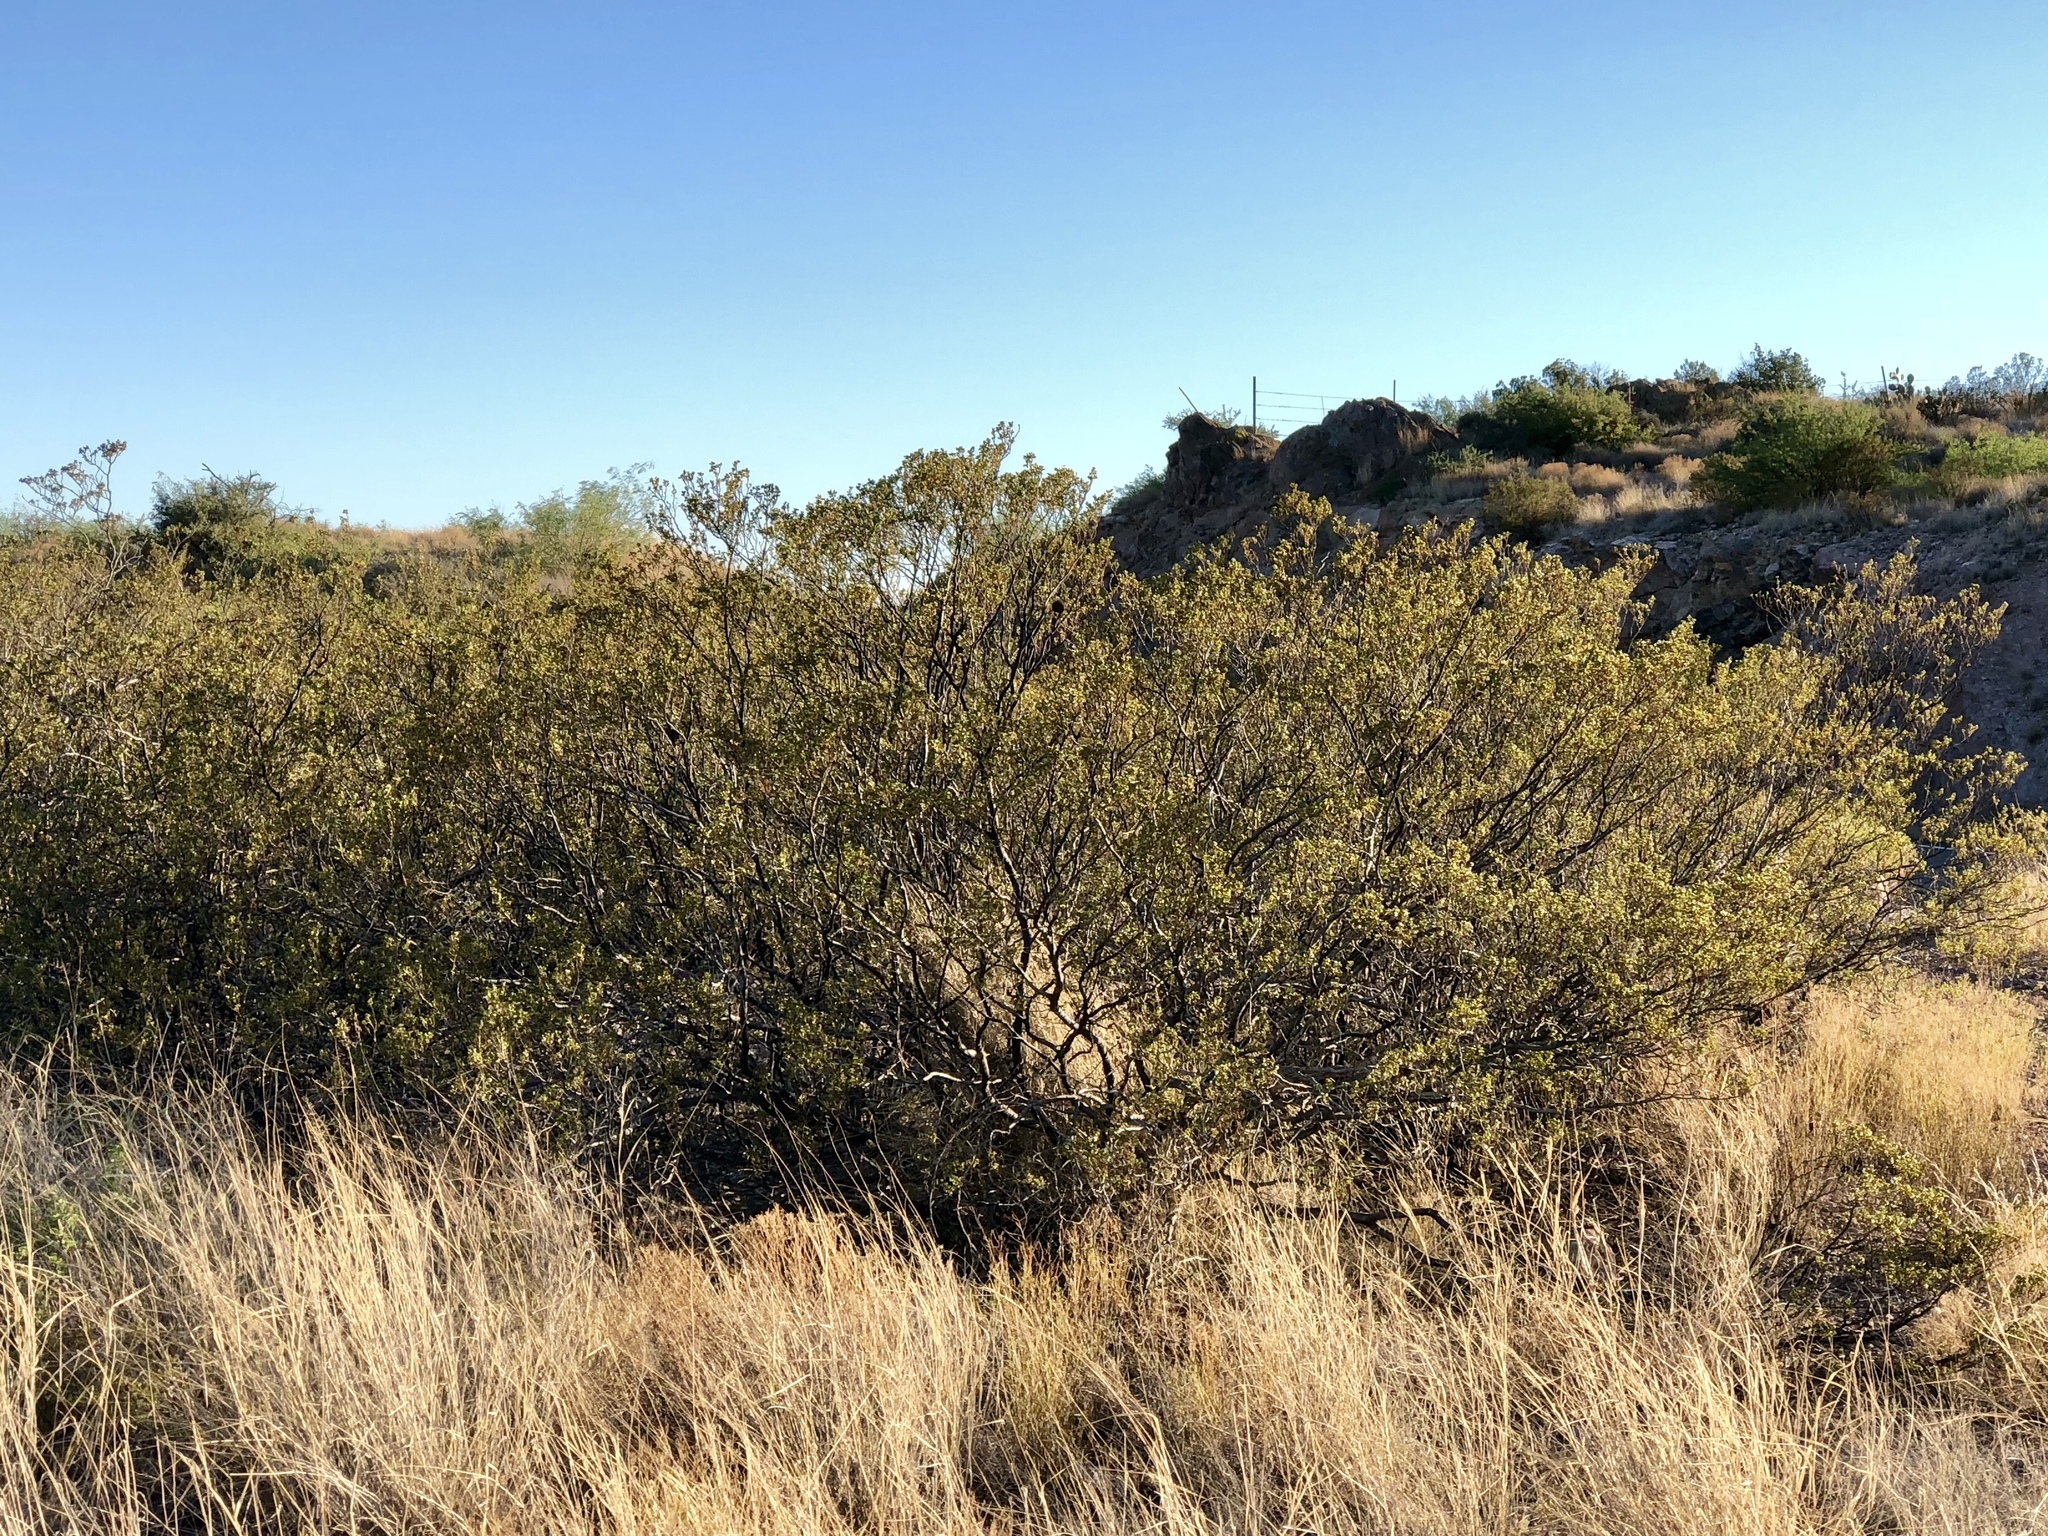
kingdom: Plantae
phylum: Tracheophyta
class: Magnoliopsida
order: Zygophyllales
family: Zygophyllaceae
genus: Larrea
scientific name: Larrea tridentata
